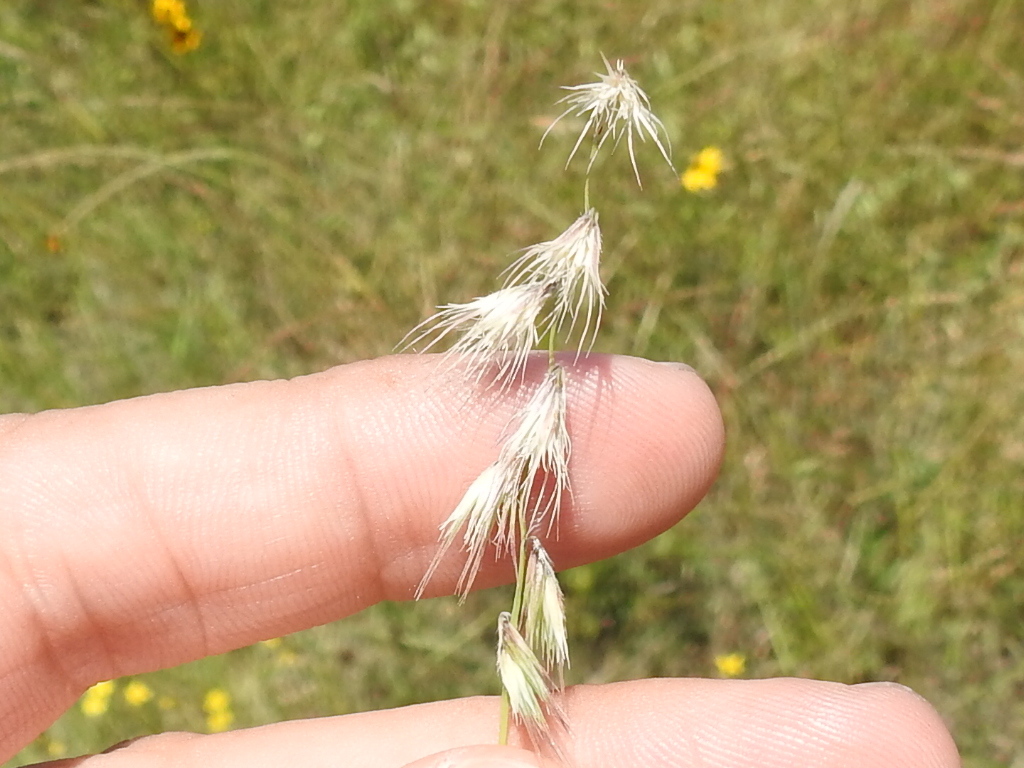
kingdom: Plantae
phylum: Tracheophyta
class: Liliopsida
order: Poales
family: Poaceae
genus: Bouteloua
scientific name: Bouteloua rigidiseta
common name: Texas grama
